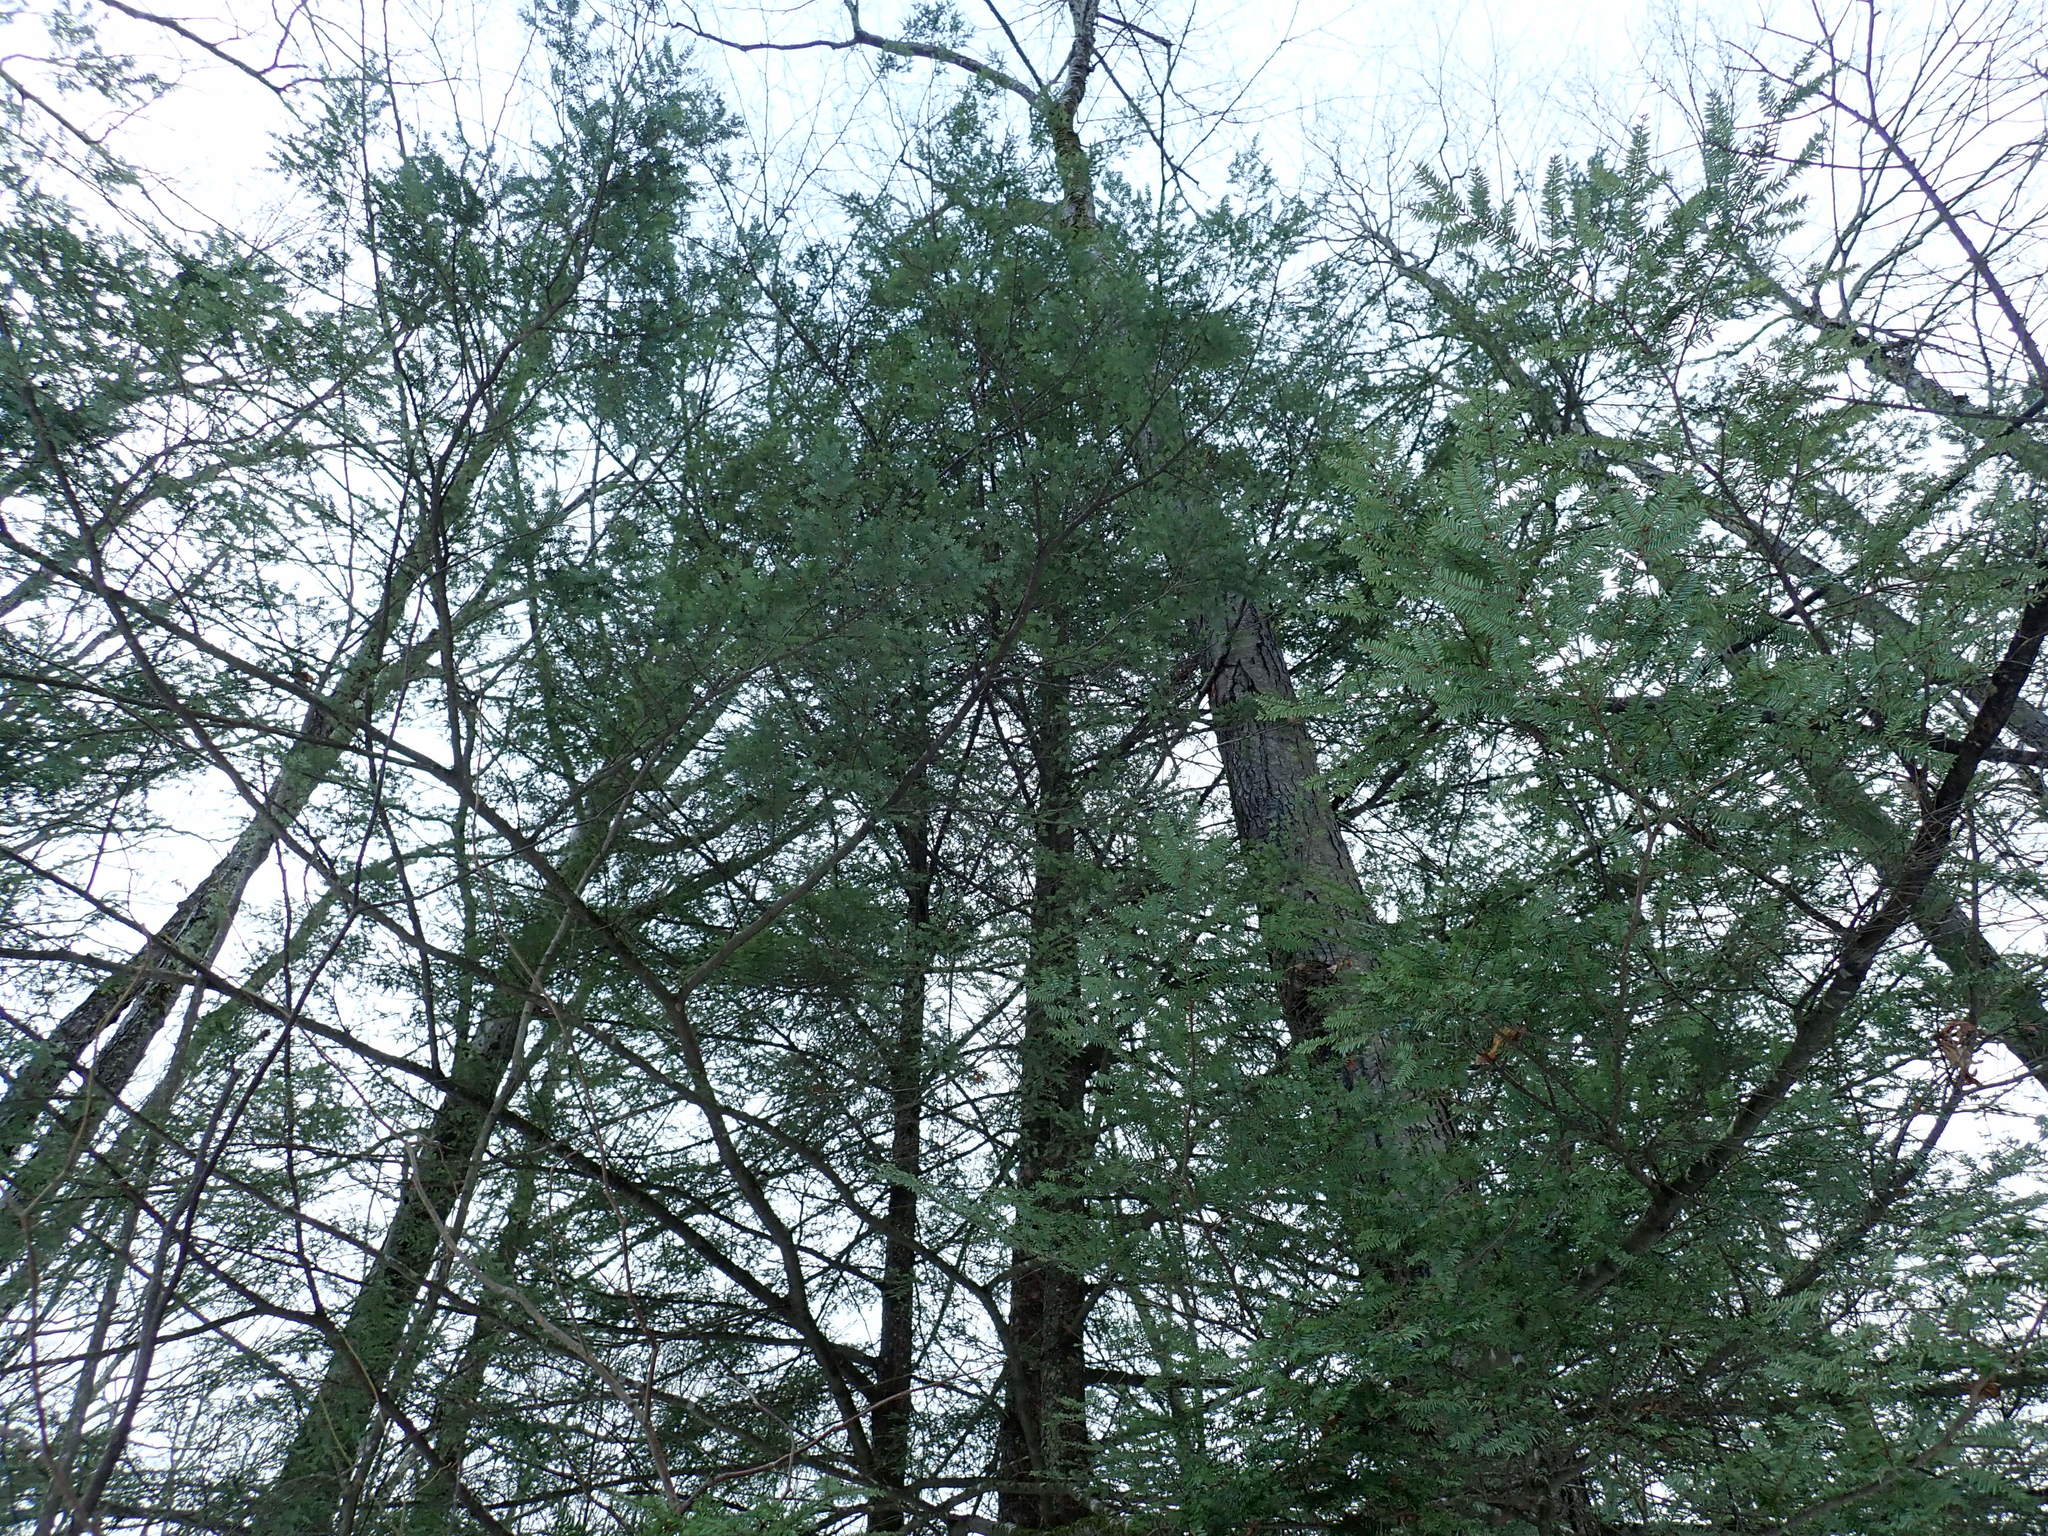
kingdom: Plantae
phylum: Tracheophyta
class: Pinopsida
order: Pinales
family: Pinaceae
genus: Tsuga
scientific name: Tsuga canadensis
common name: Eastern hemlock
